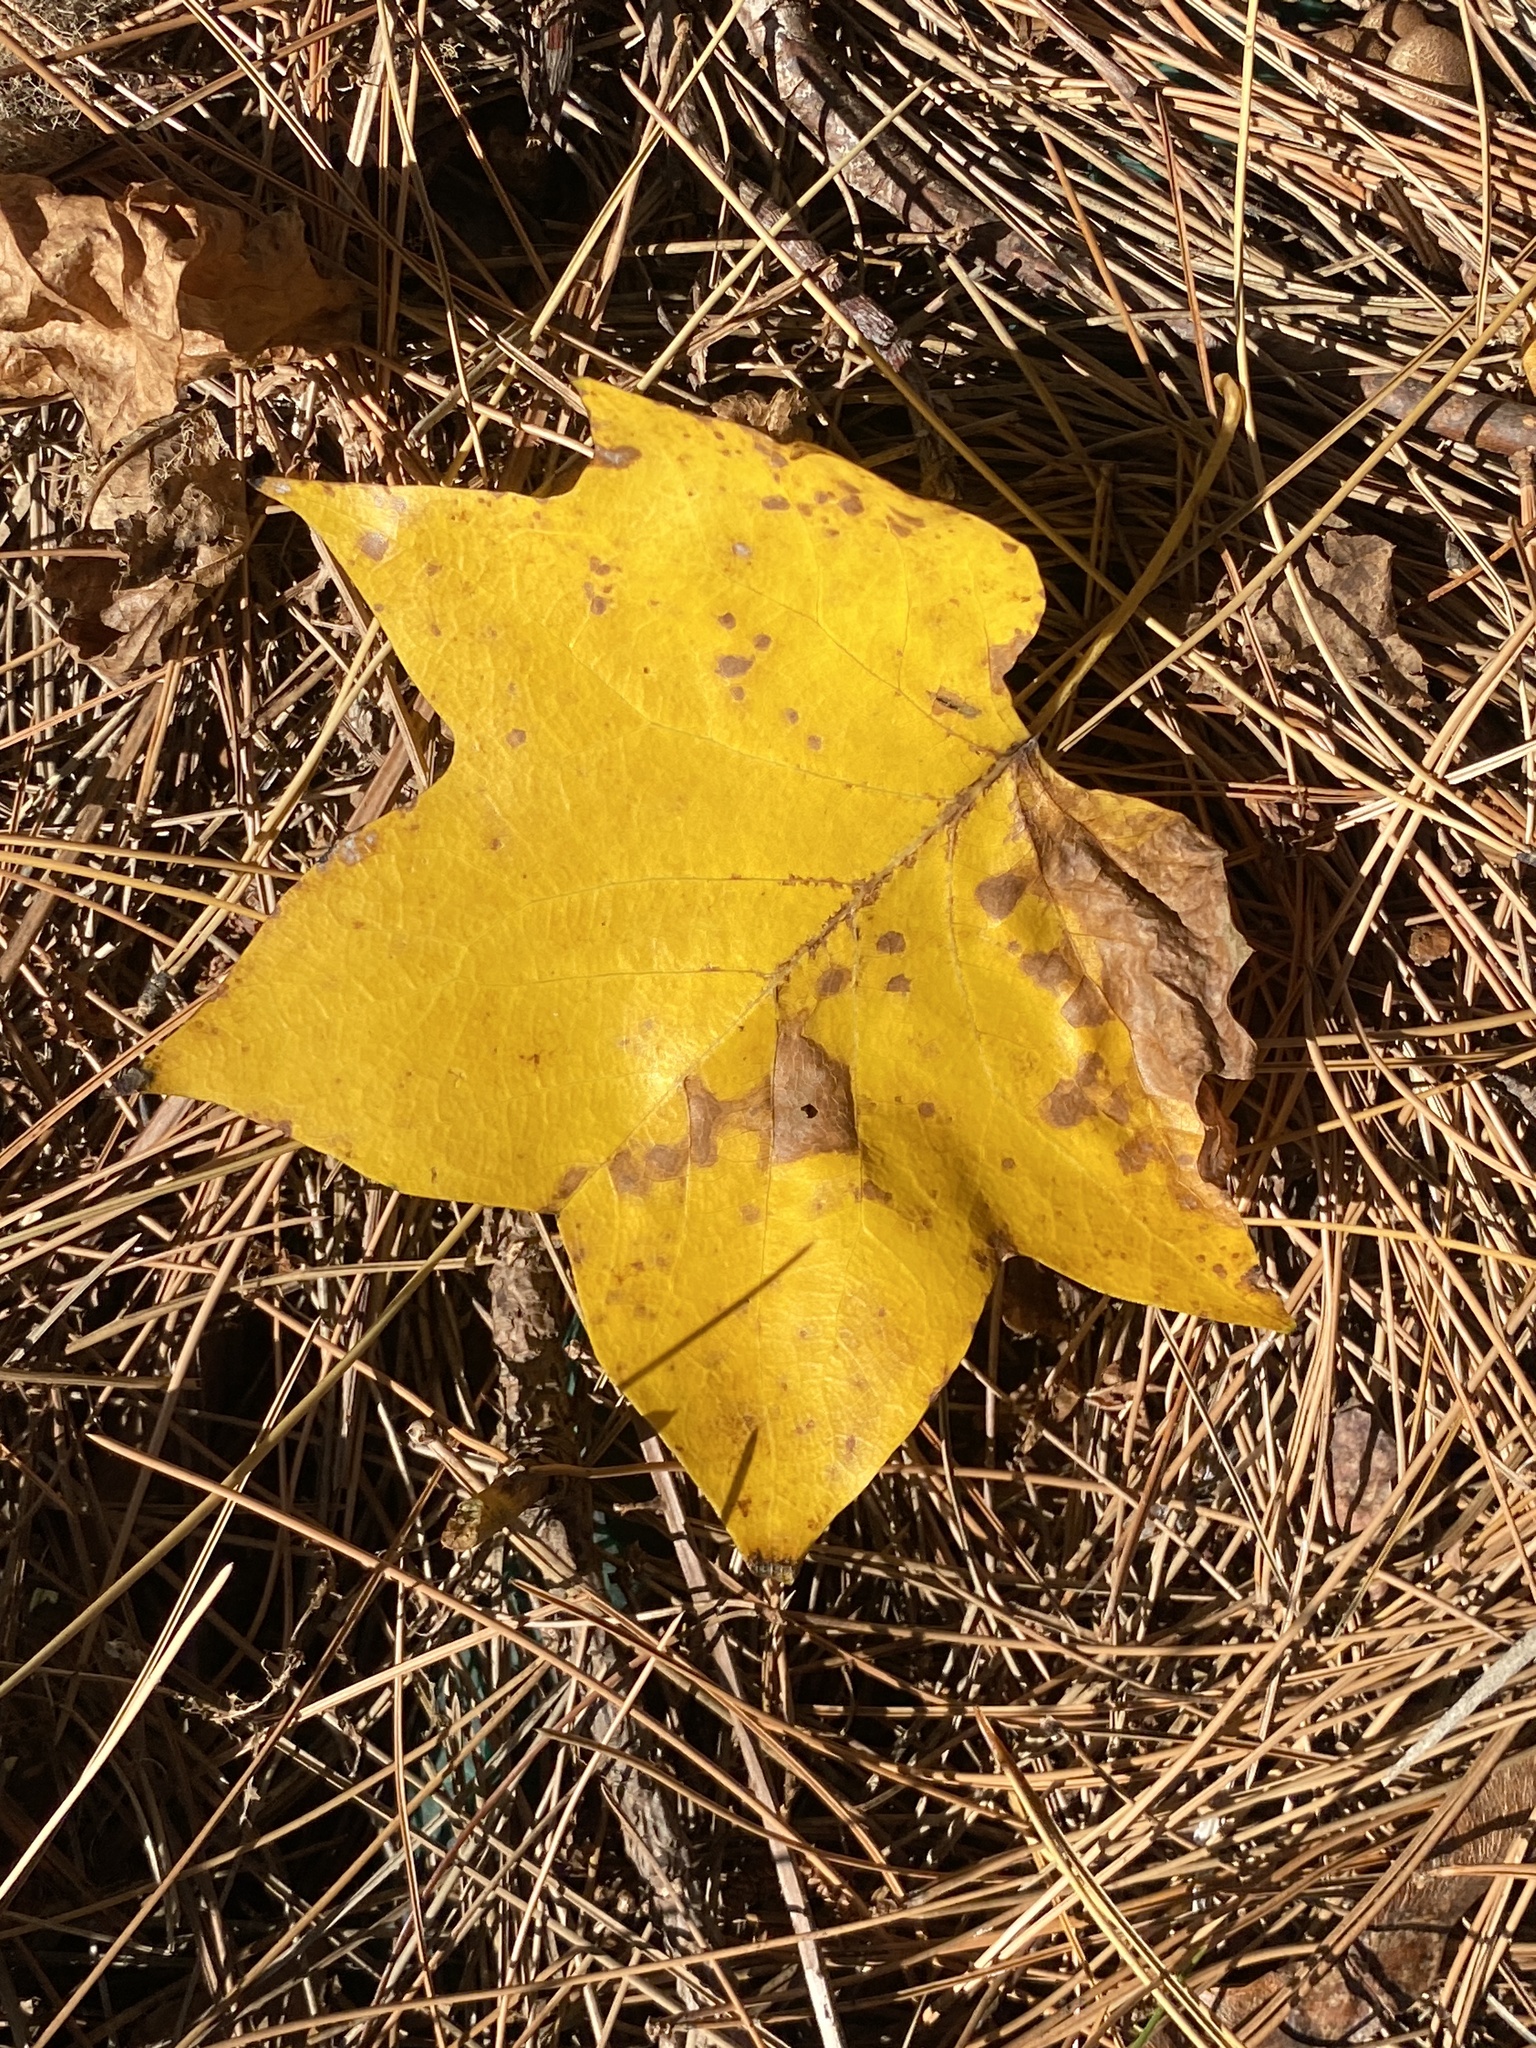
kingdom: Plantae
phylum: Tracheophyta
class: Magnoliopsida
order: Magnoliales
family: Magnoliaceae
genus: Liriodendron
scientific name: Liriodendron tulipifera
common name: Tulip tree
